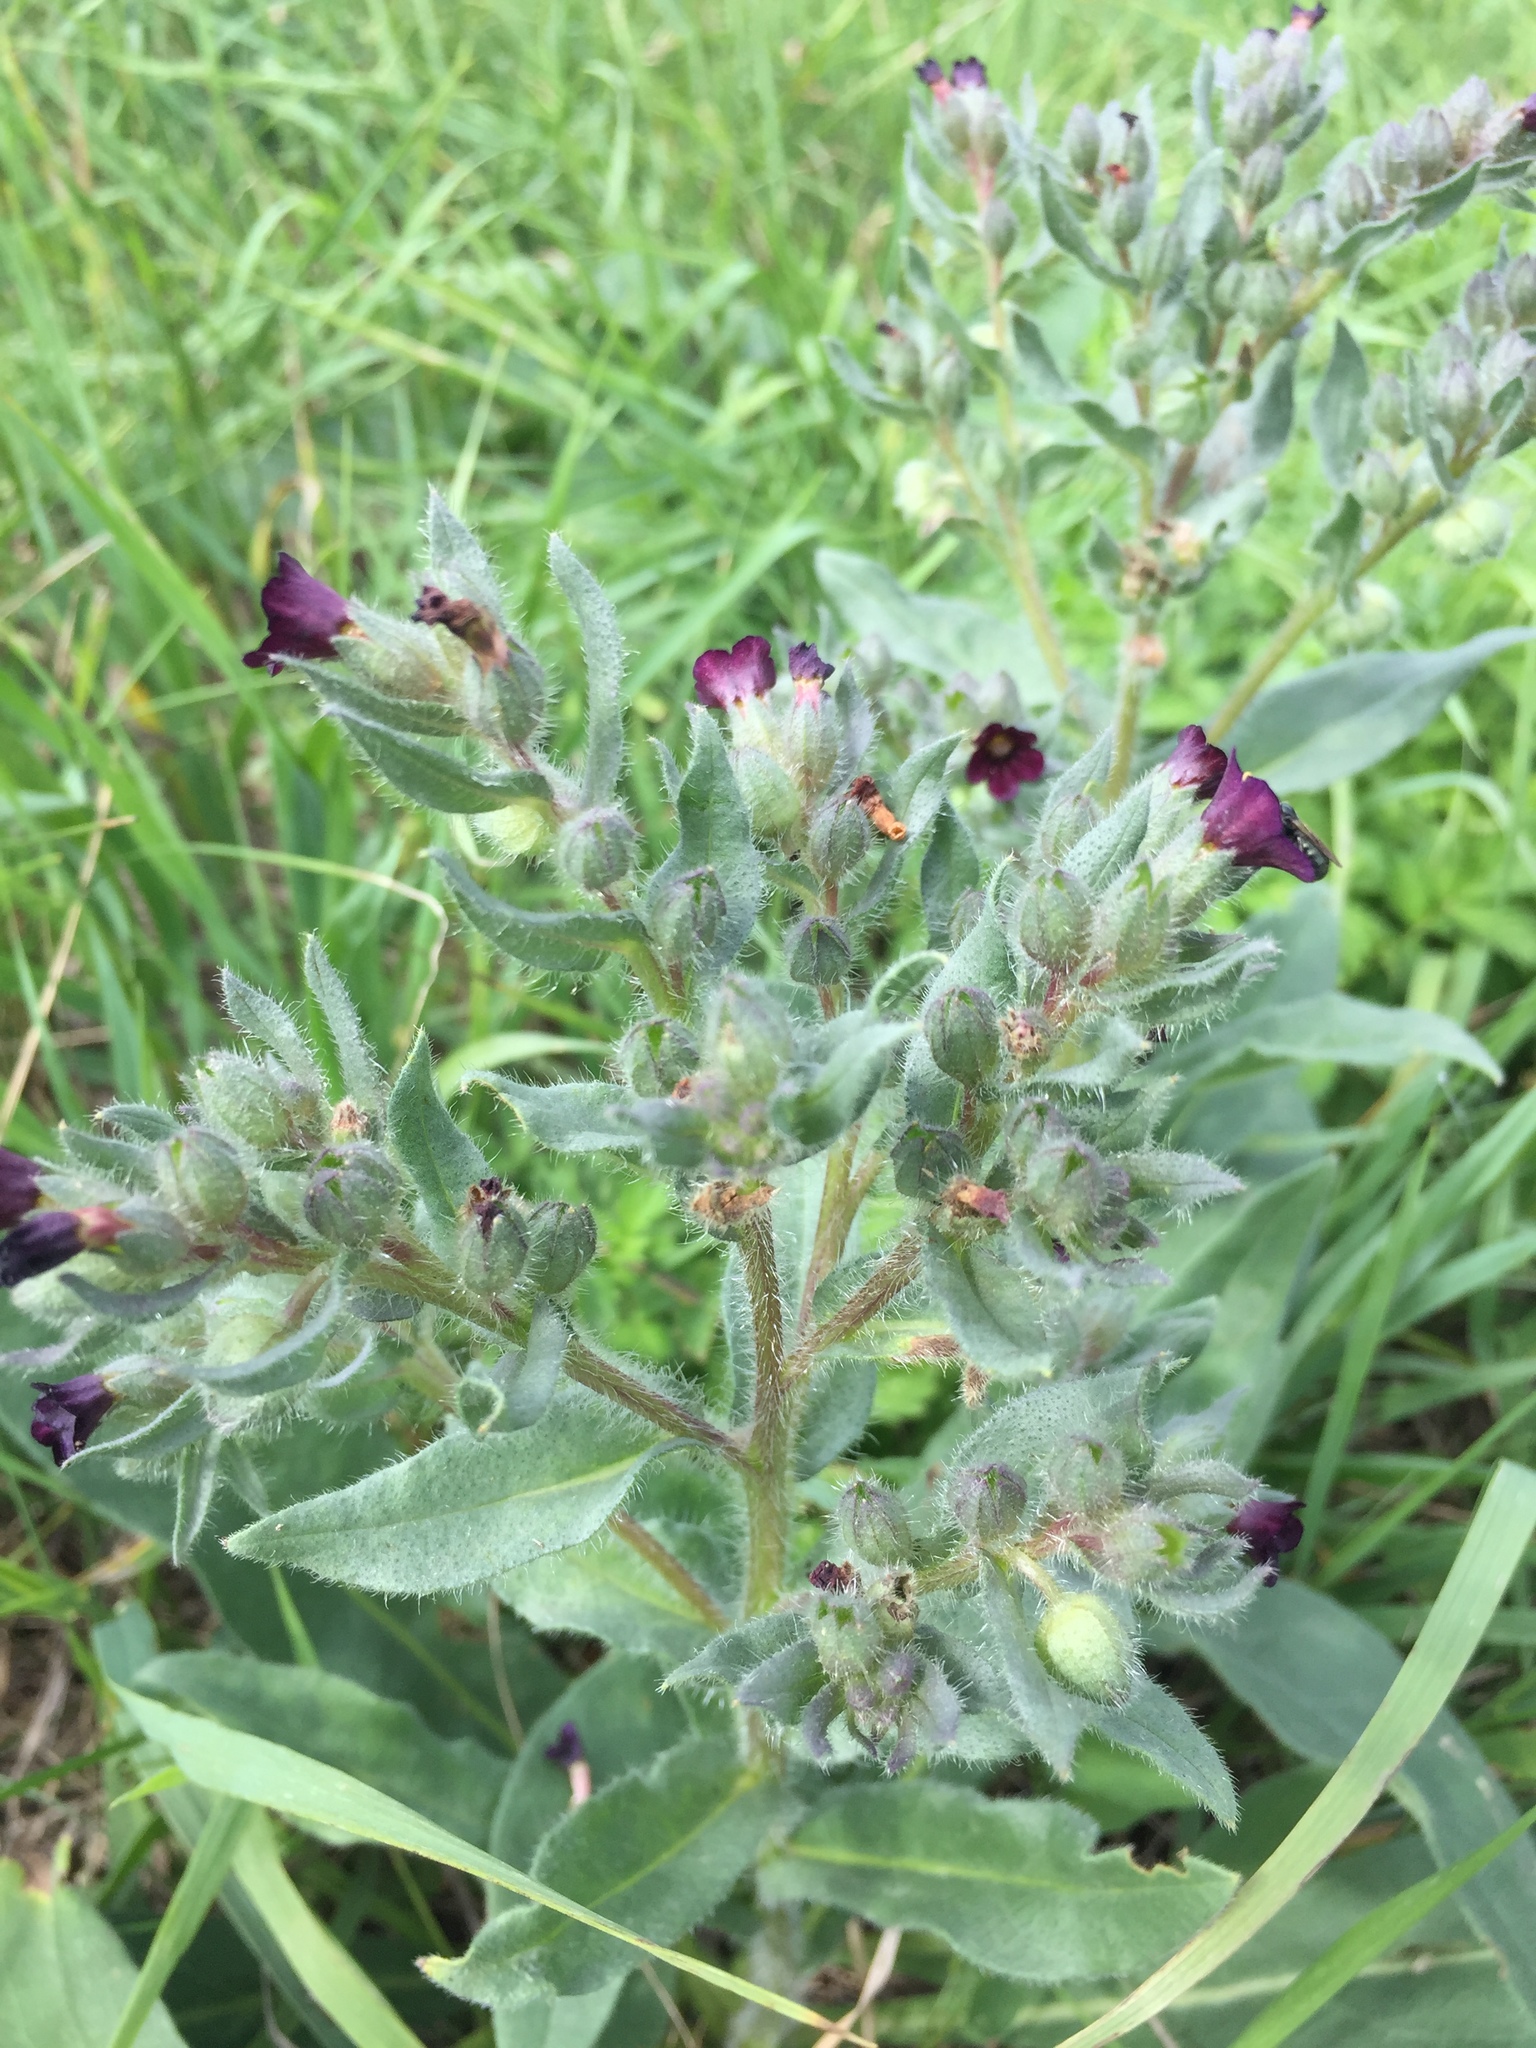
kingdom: Plantae
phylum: Tracheophyta
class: Magnoliopsida
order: Boraginales
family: Boraginaceae
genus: Nonea
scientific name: Nonea pulla
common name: Brown nonea
